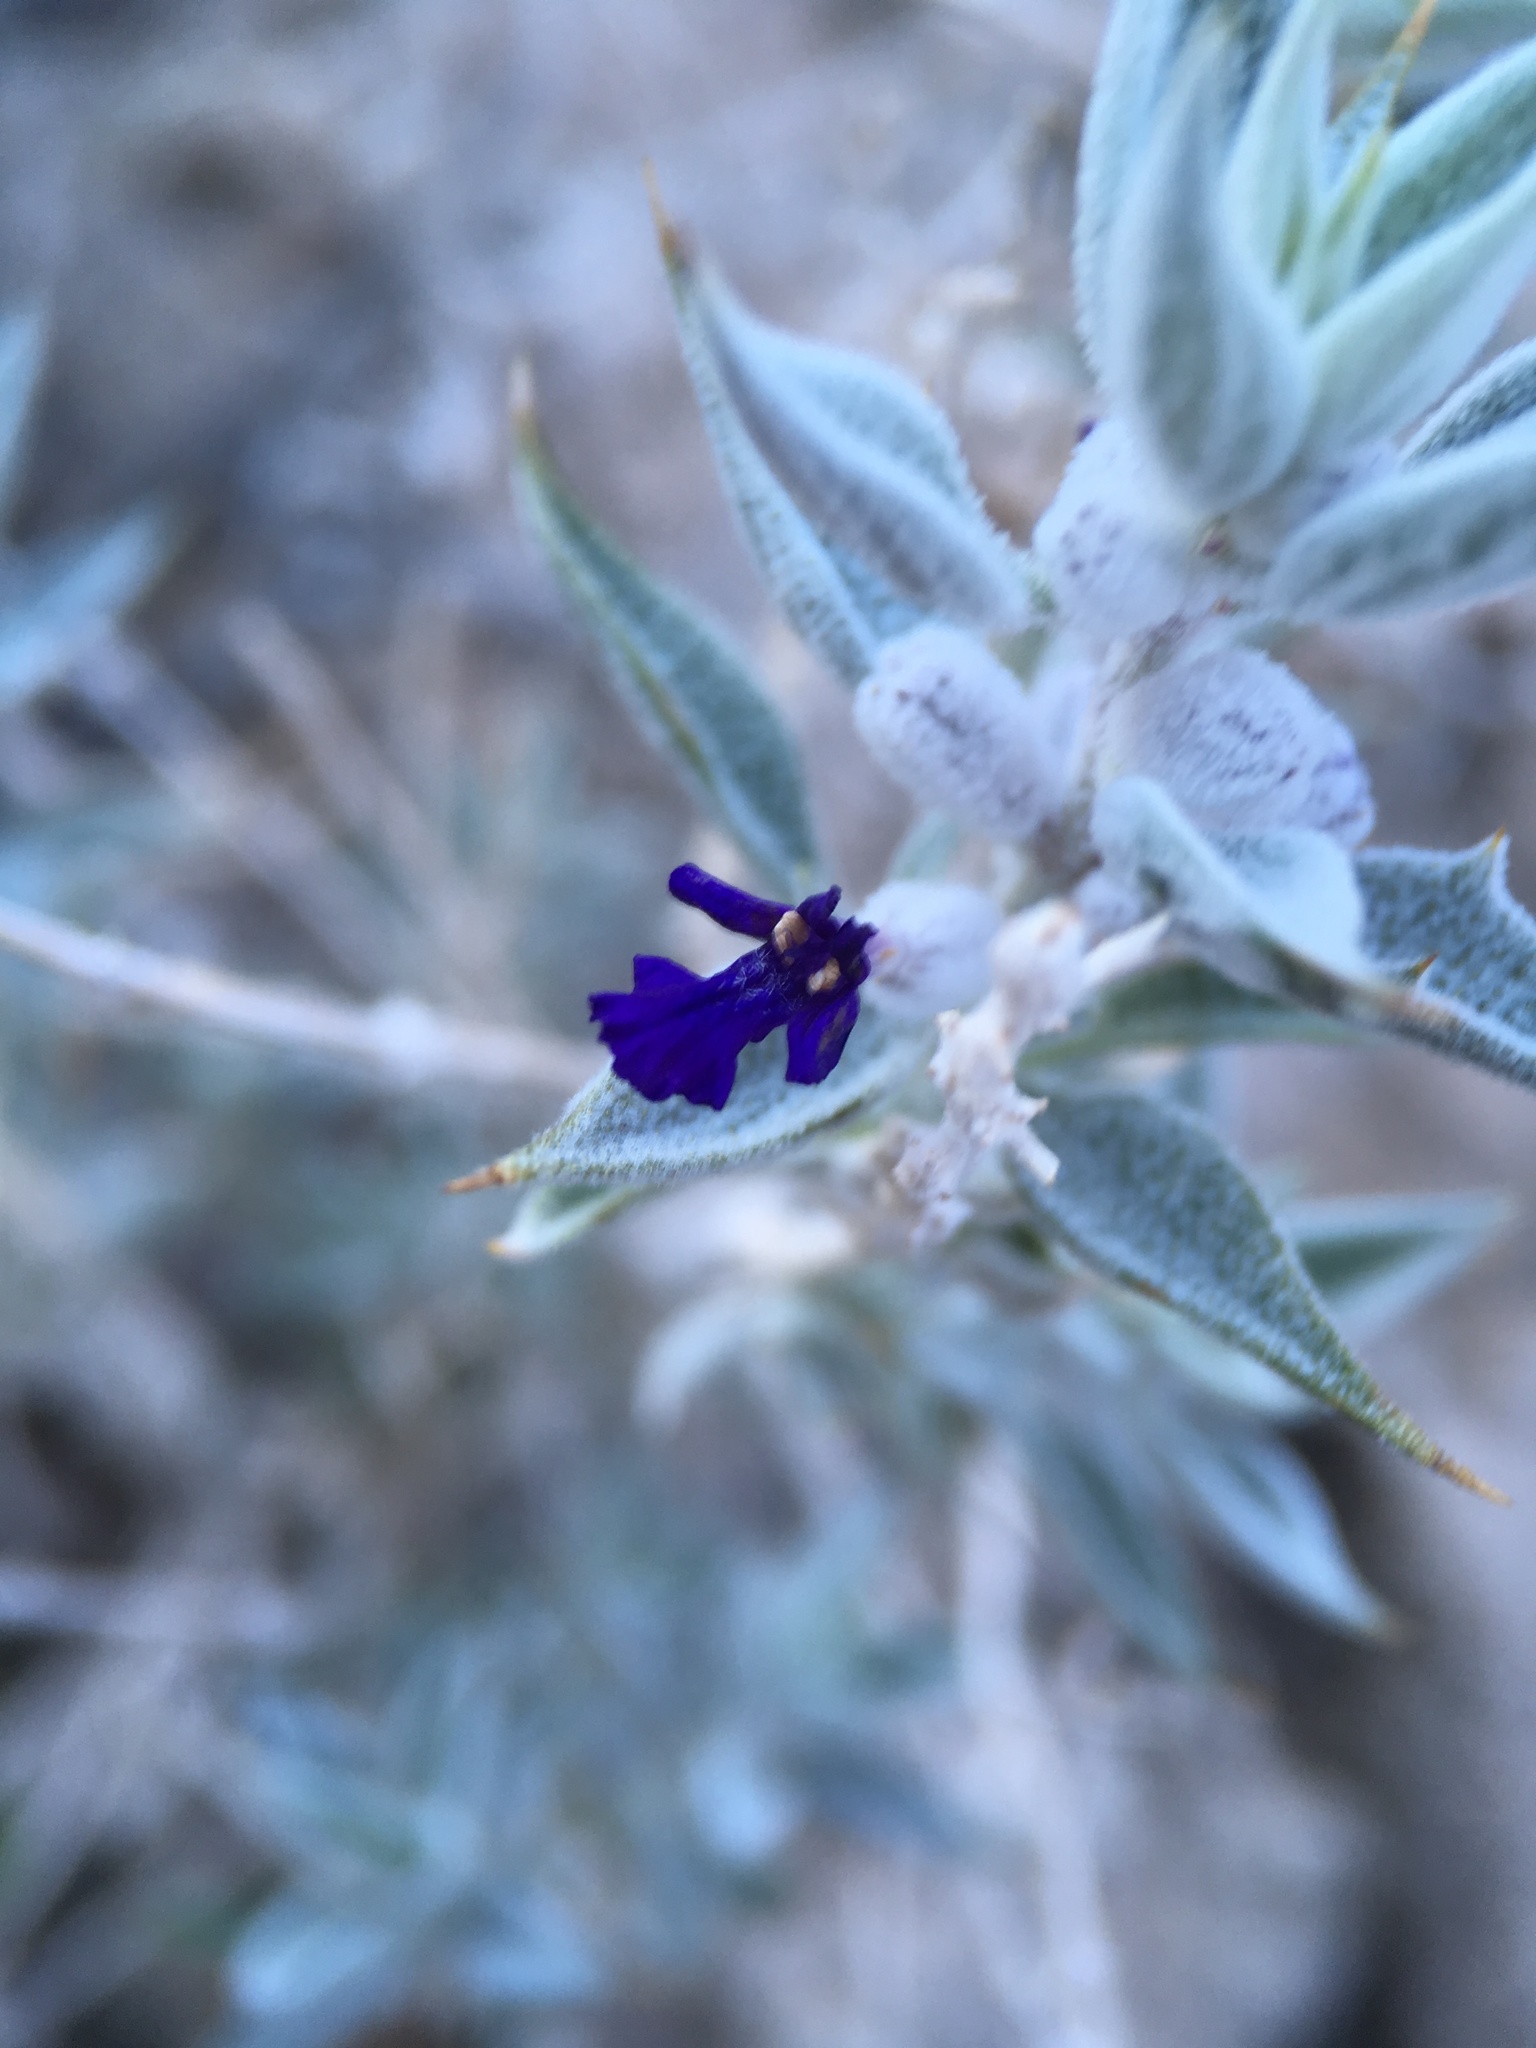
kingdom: Plantae
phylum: Tracheophyta
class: Magnoliopsida
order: Lamiales
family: Lamiaceae
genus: Salvia
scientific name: Salvia funerea
